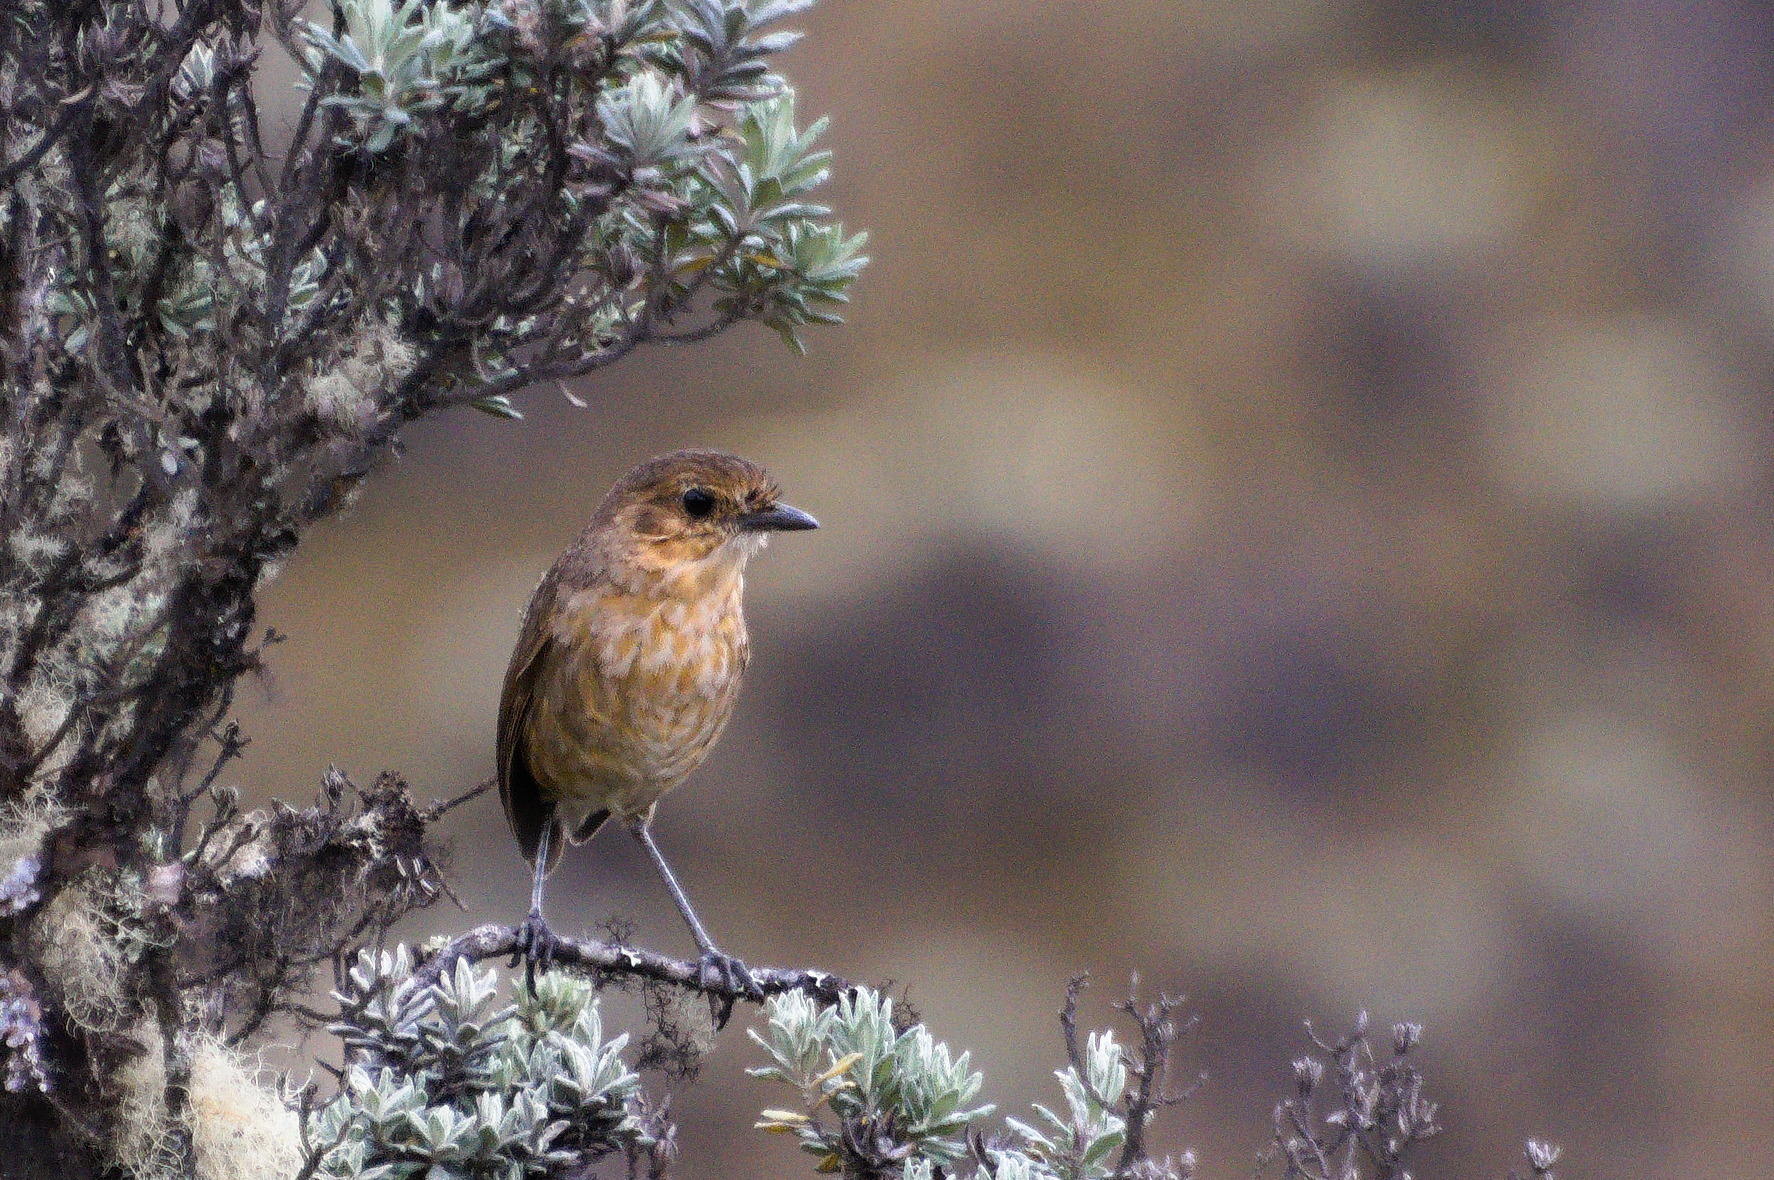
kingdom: Animalia
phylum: Chordata
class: Aves
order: Passeriformes
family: Grallariidae
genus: Grallaria
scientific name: Grallaria alticola
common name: Boyaca antpitta
